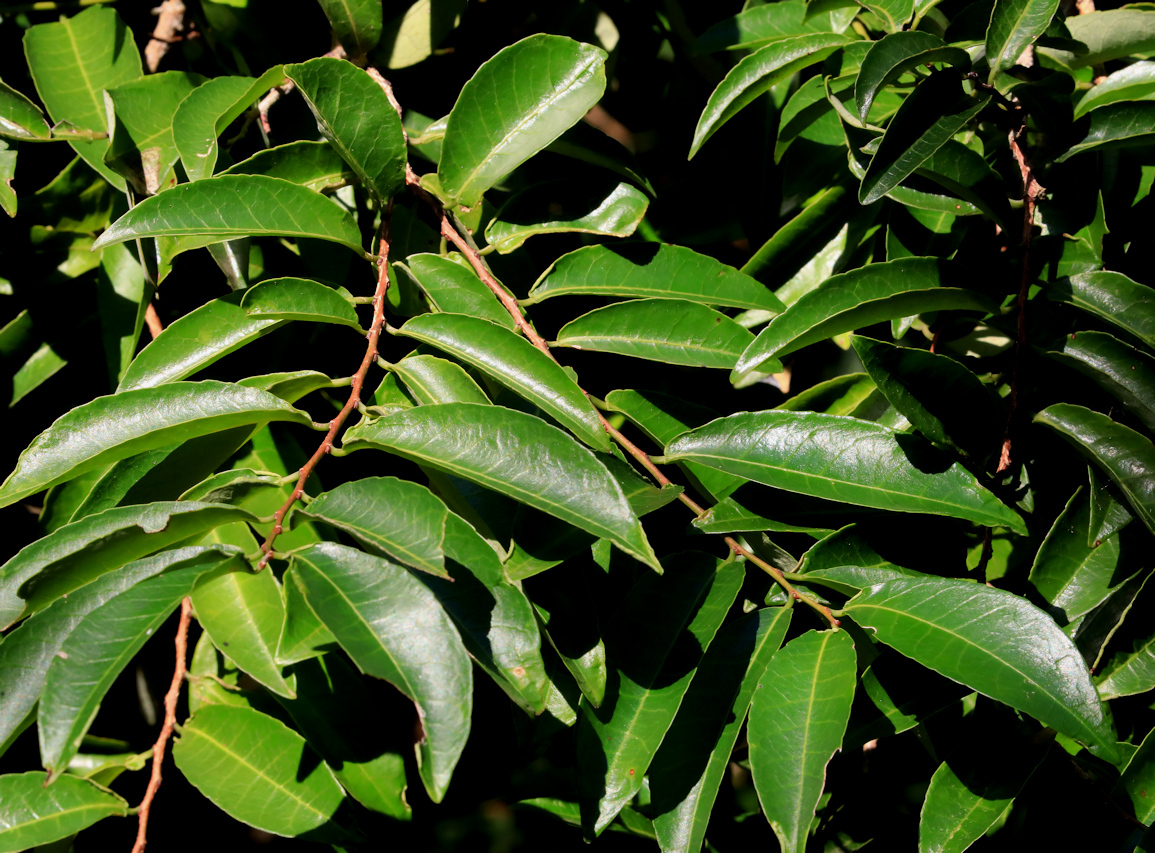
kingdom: Plantae
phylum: Tracheophyta
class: Magnoliopsida
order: Malpighiales
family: Euphorbiaceae
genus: Sclerocroton
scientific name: Sclerocroton integerrimus
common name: Duiker berry
